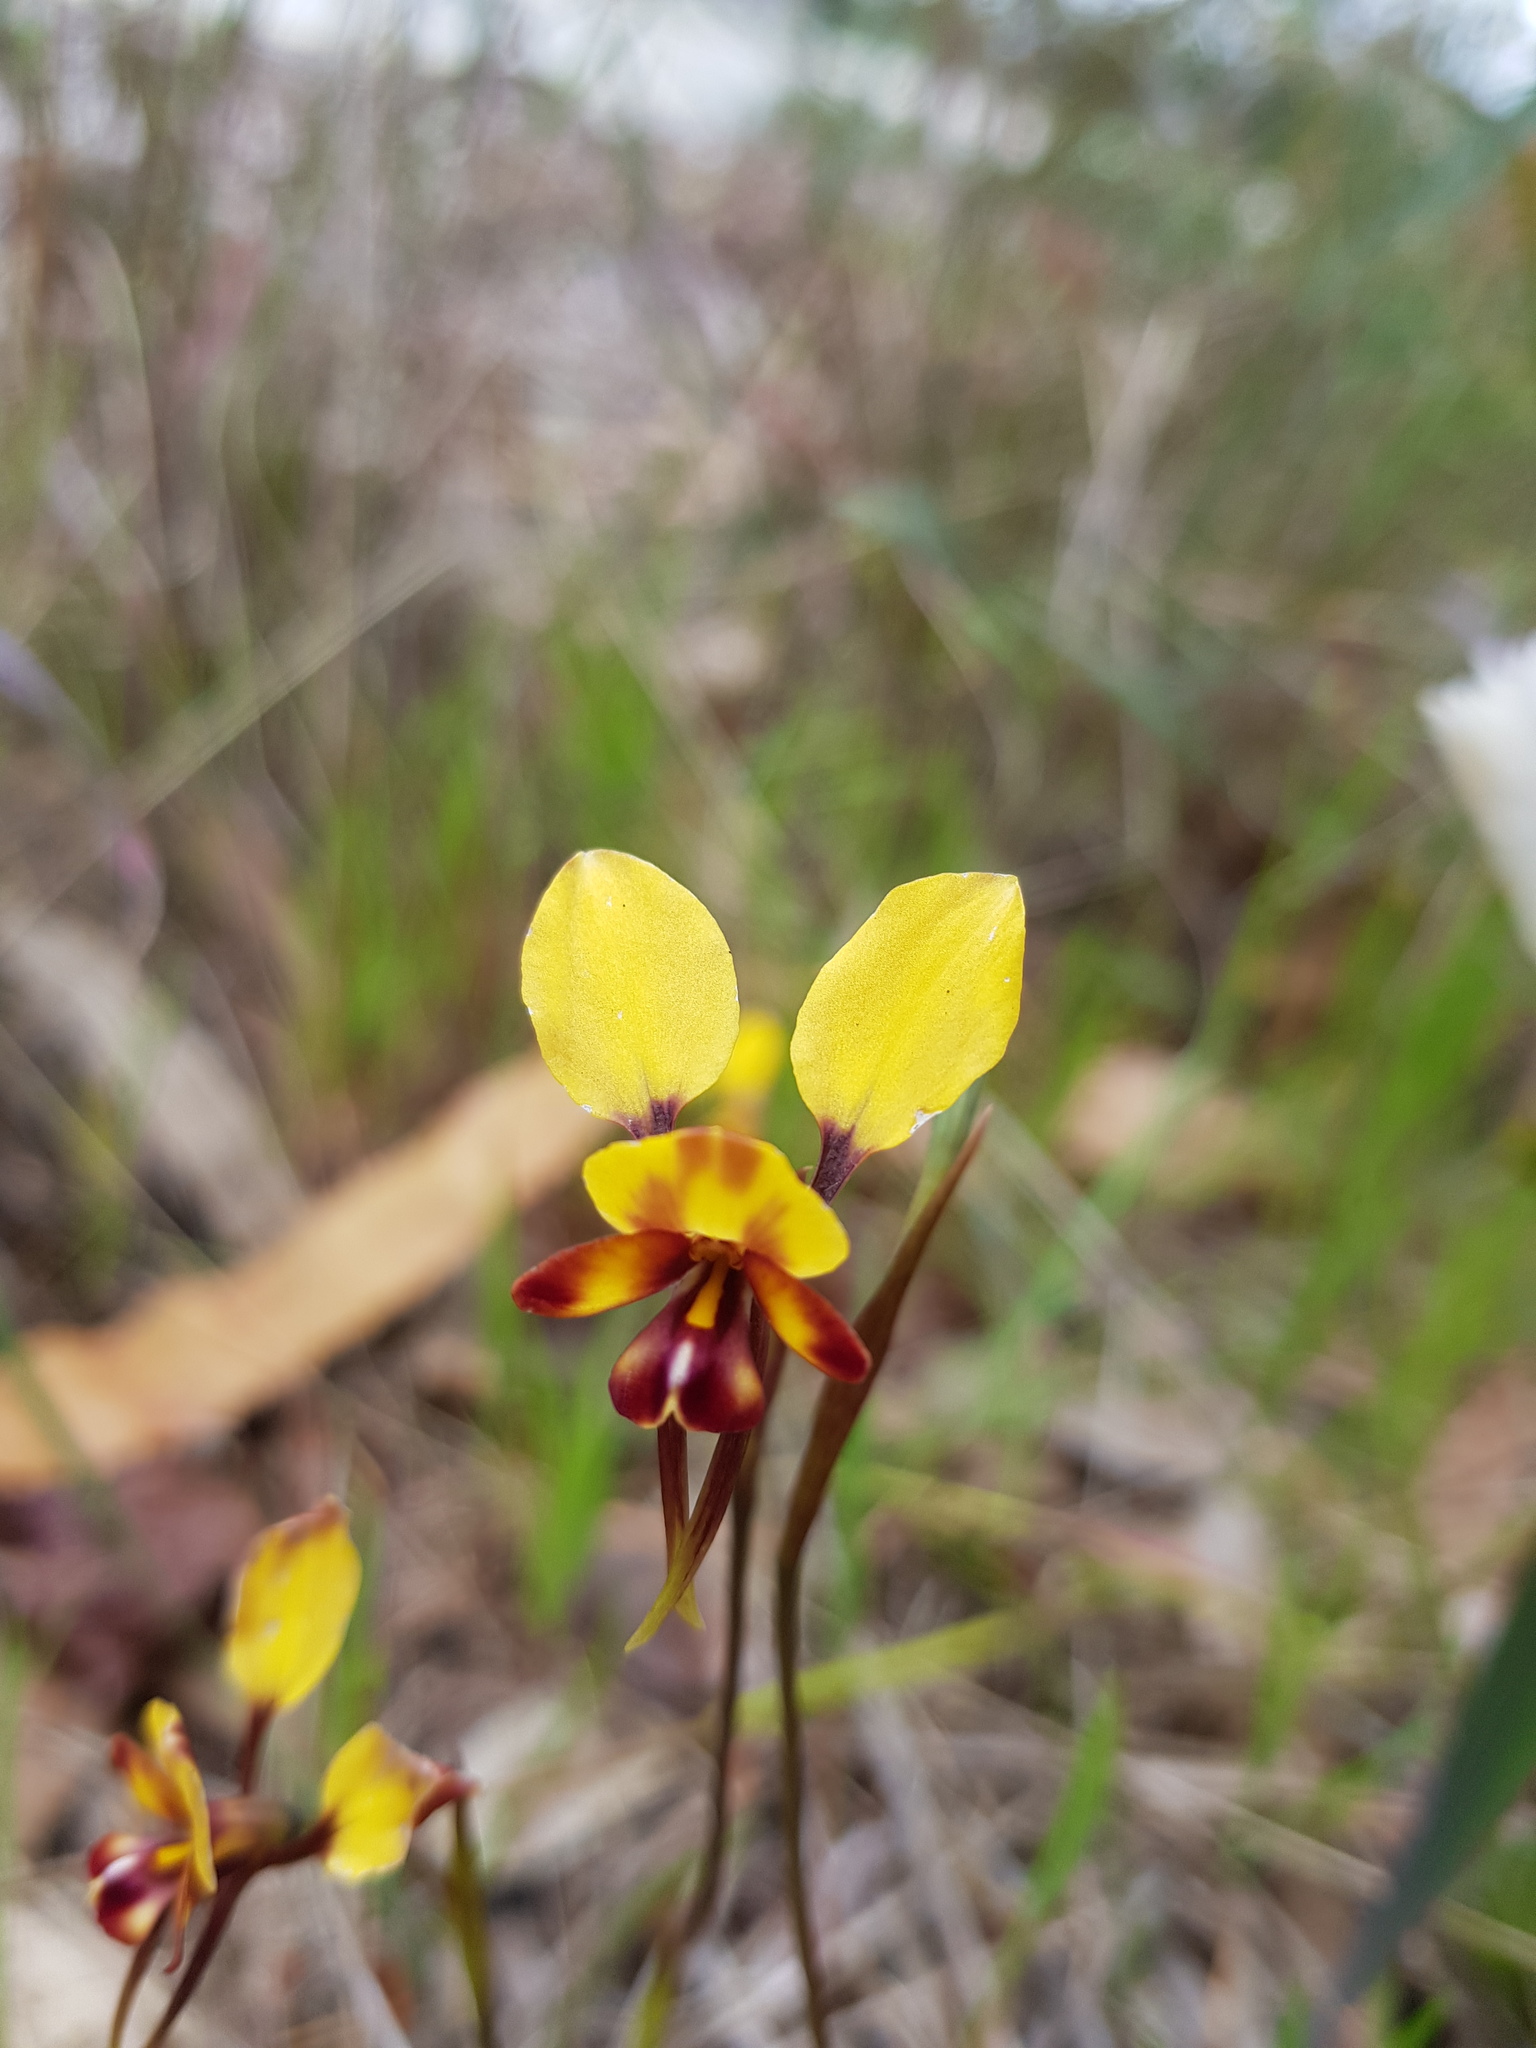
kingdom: Plantae
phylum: Tracheophyta
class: Liliopsida
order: Asparagales
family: Orchidaceae
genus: Diuris
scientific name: Diuris corymbosa
